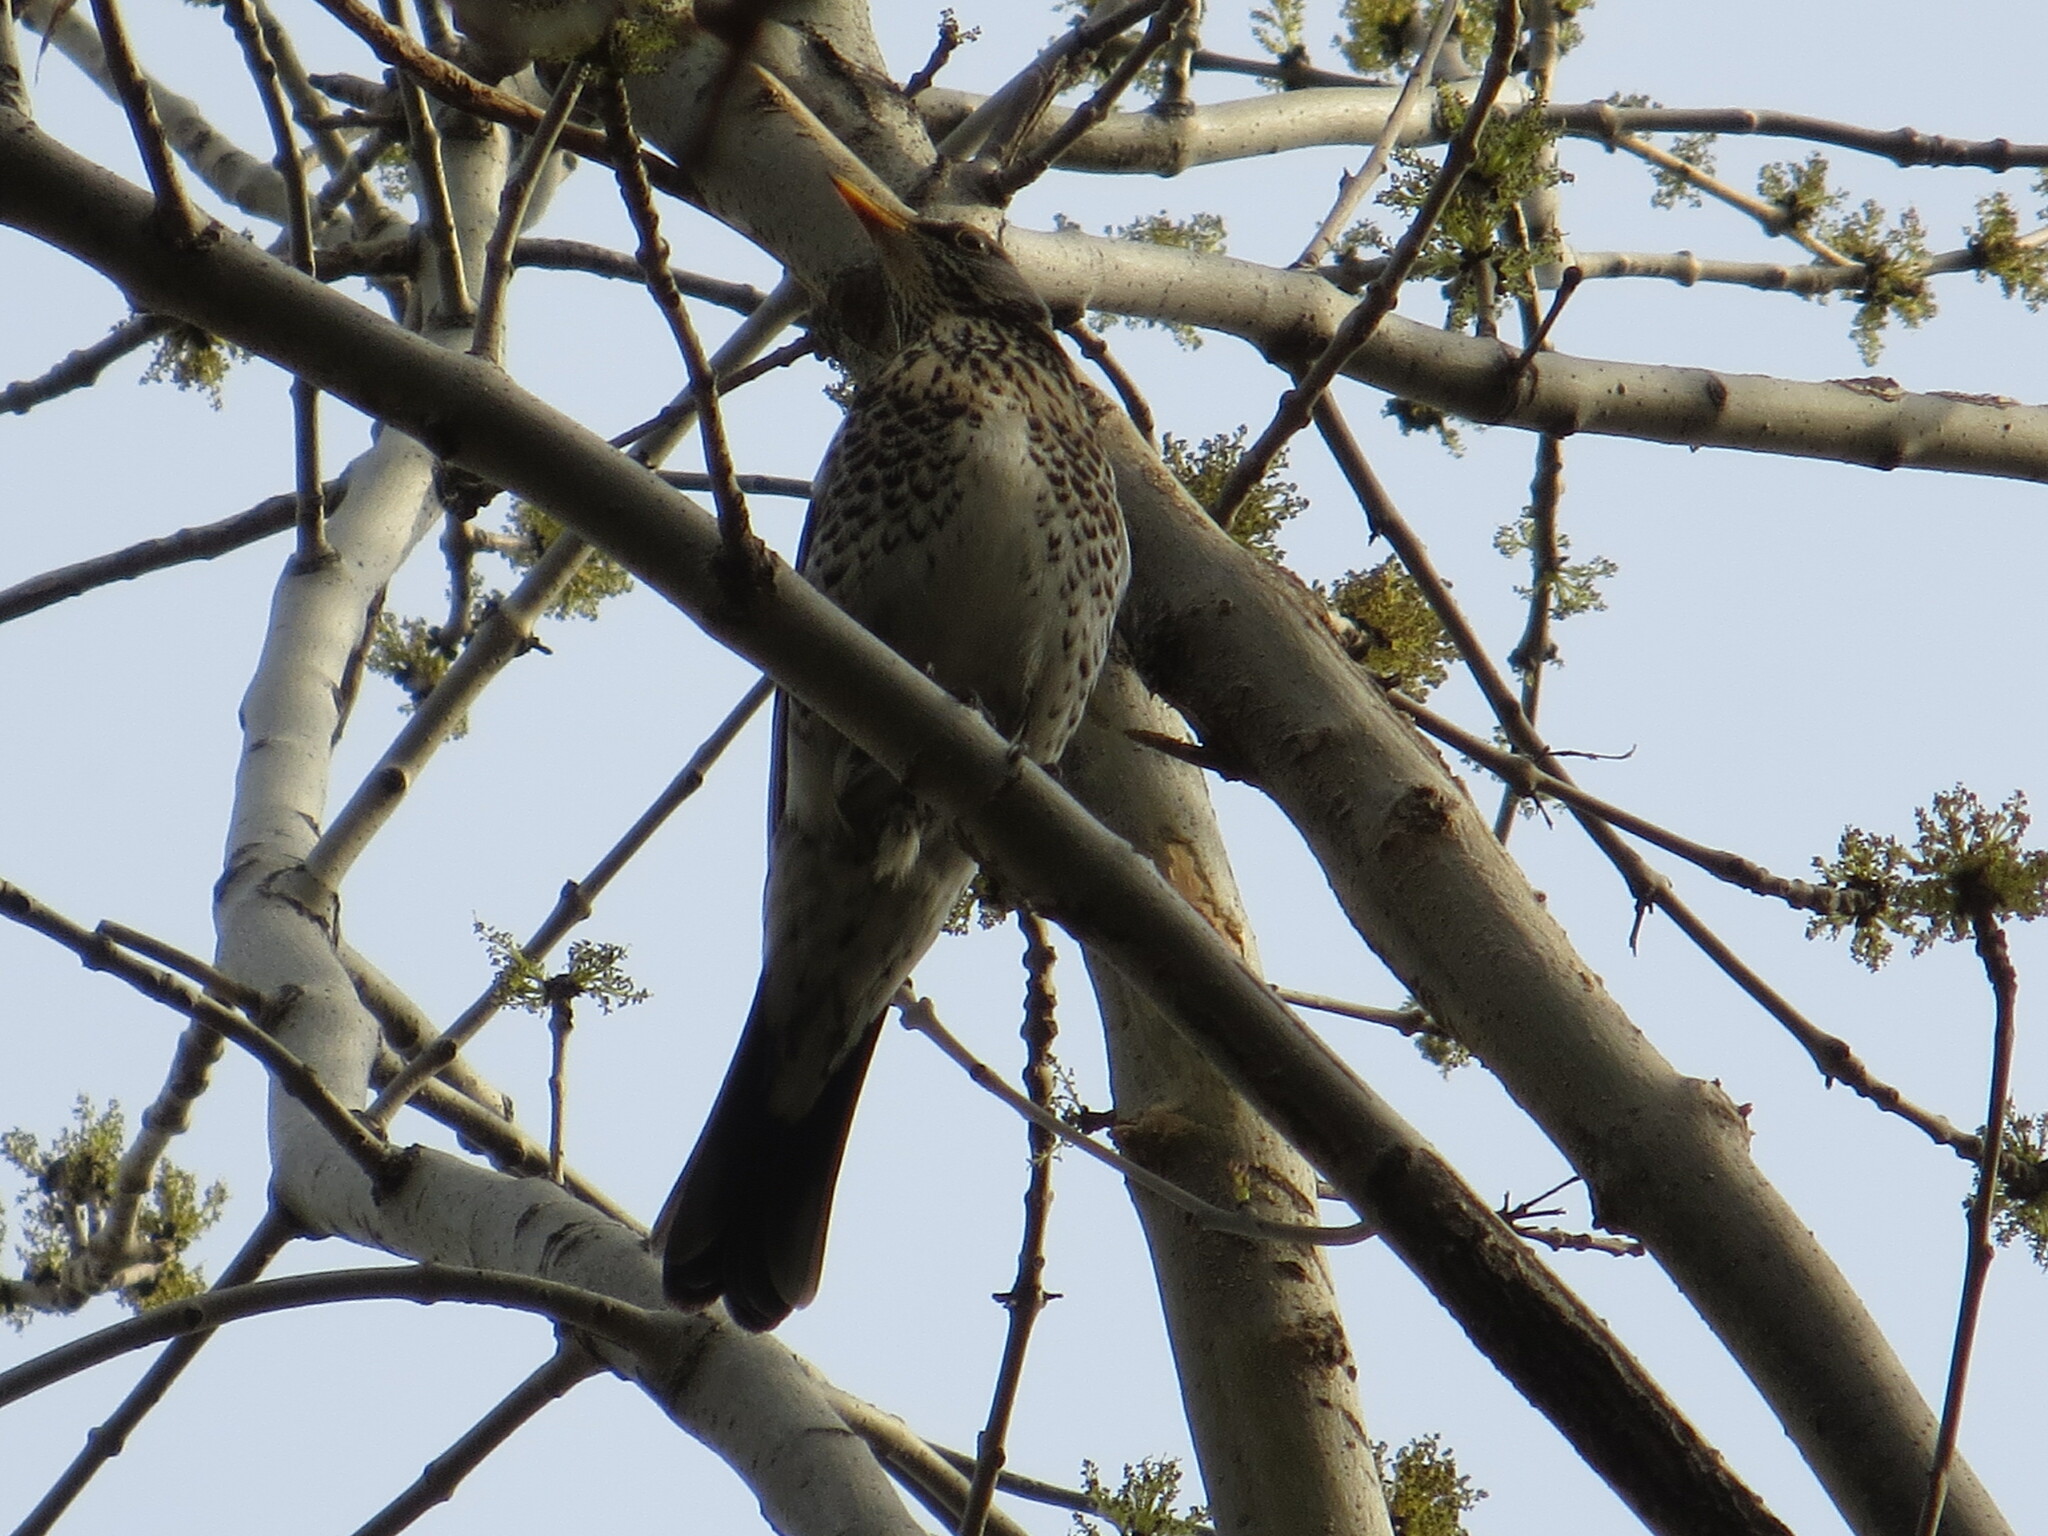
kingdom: Animalia
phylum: Chordata
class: Aves
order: Passeriformes
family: Turdidae
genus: Turdus
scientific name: Turdus pilaris
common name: Fieldfare
